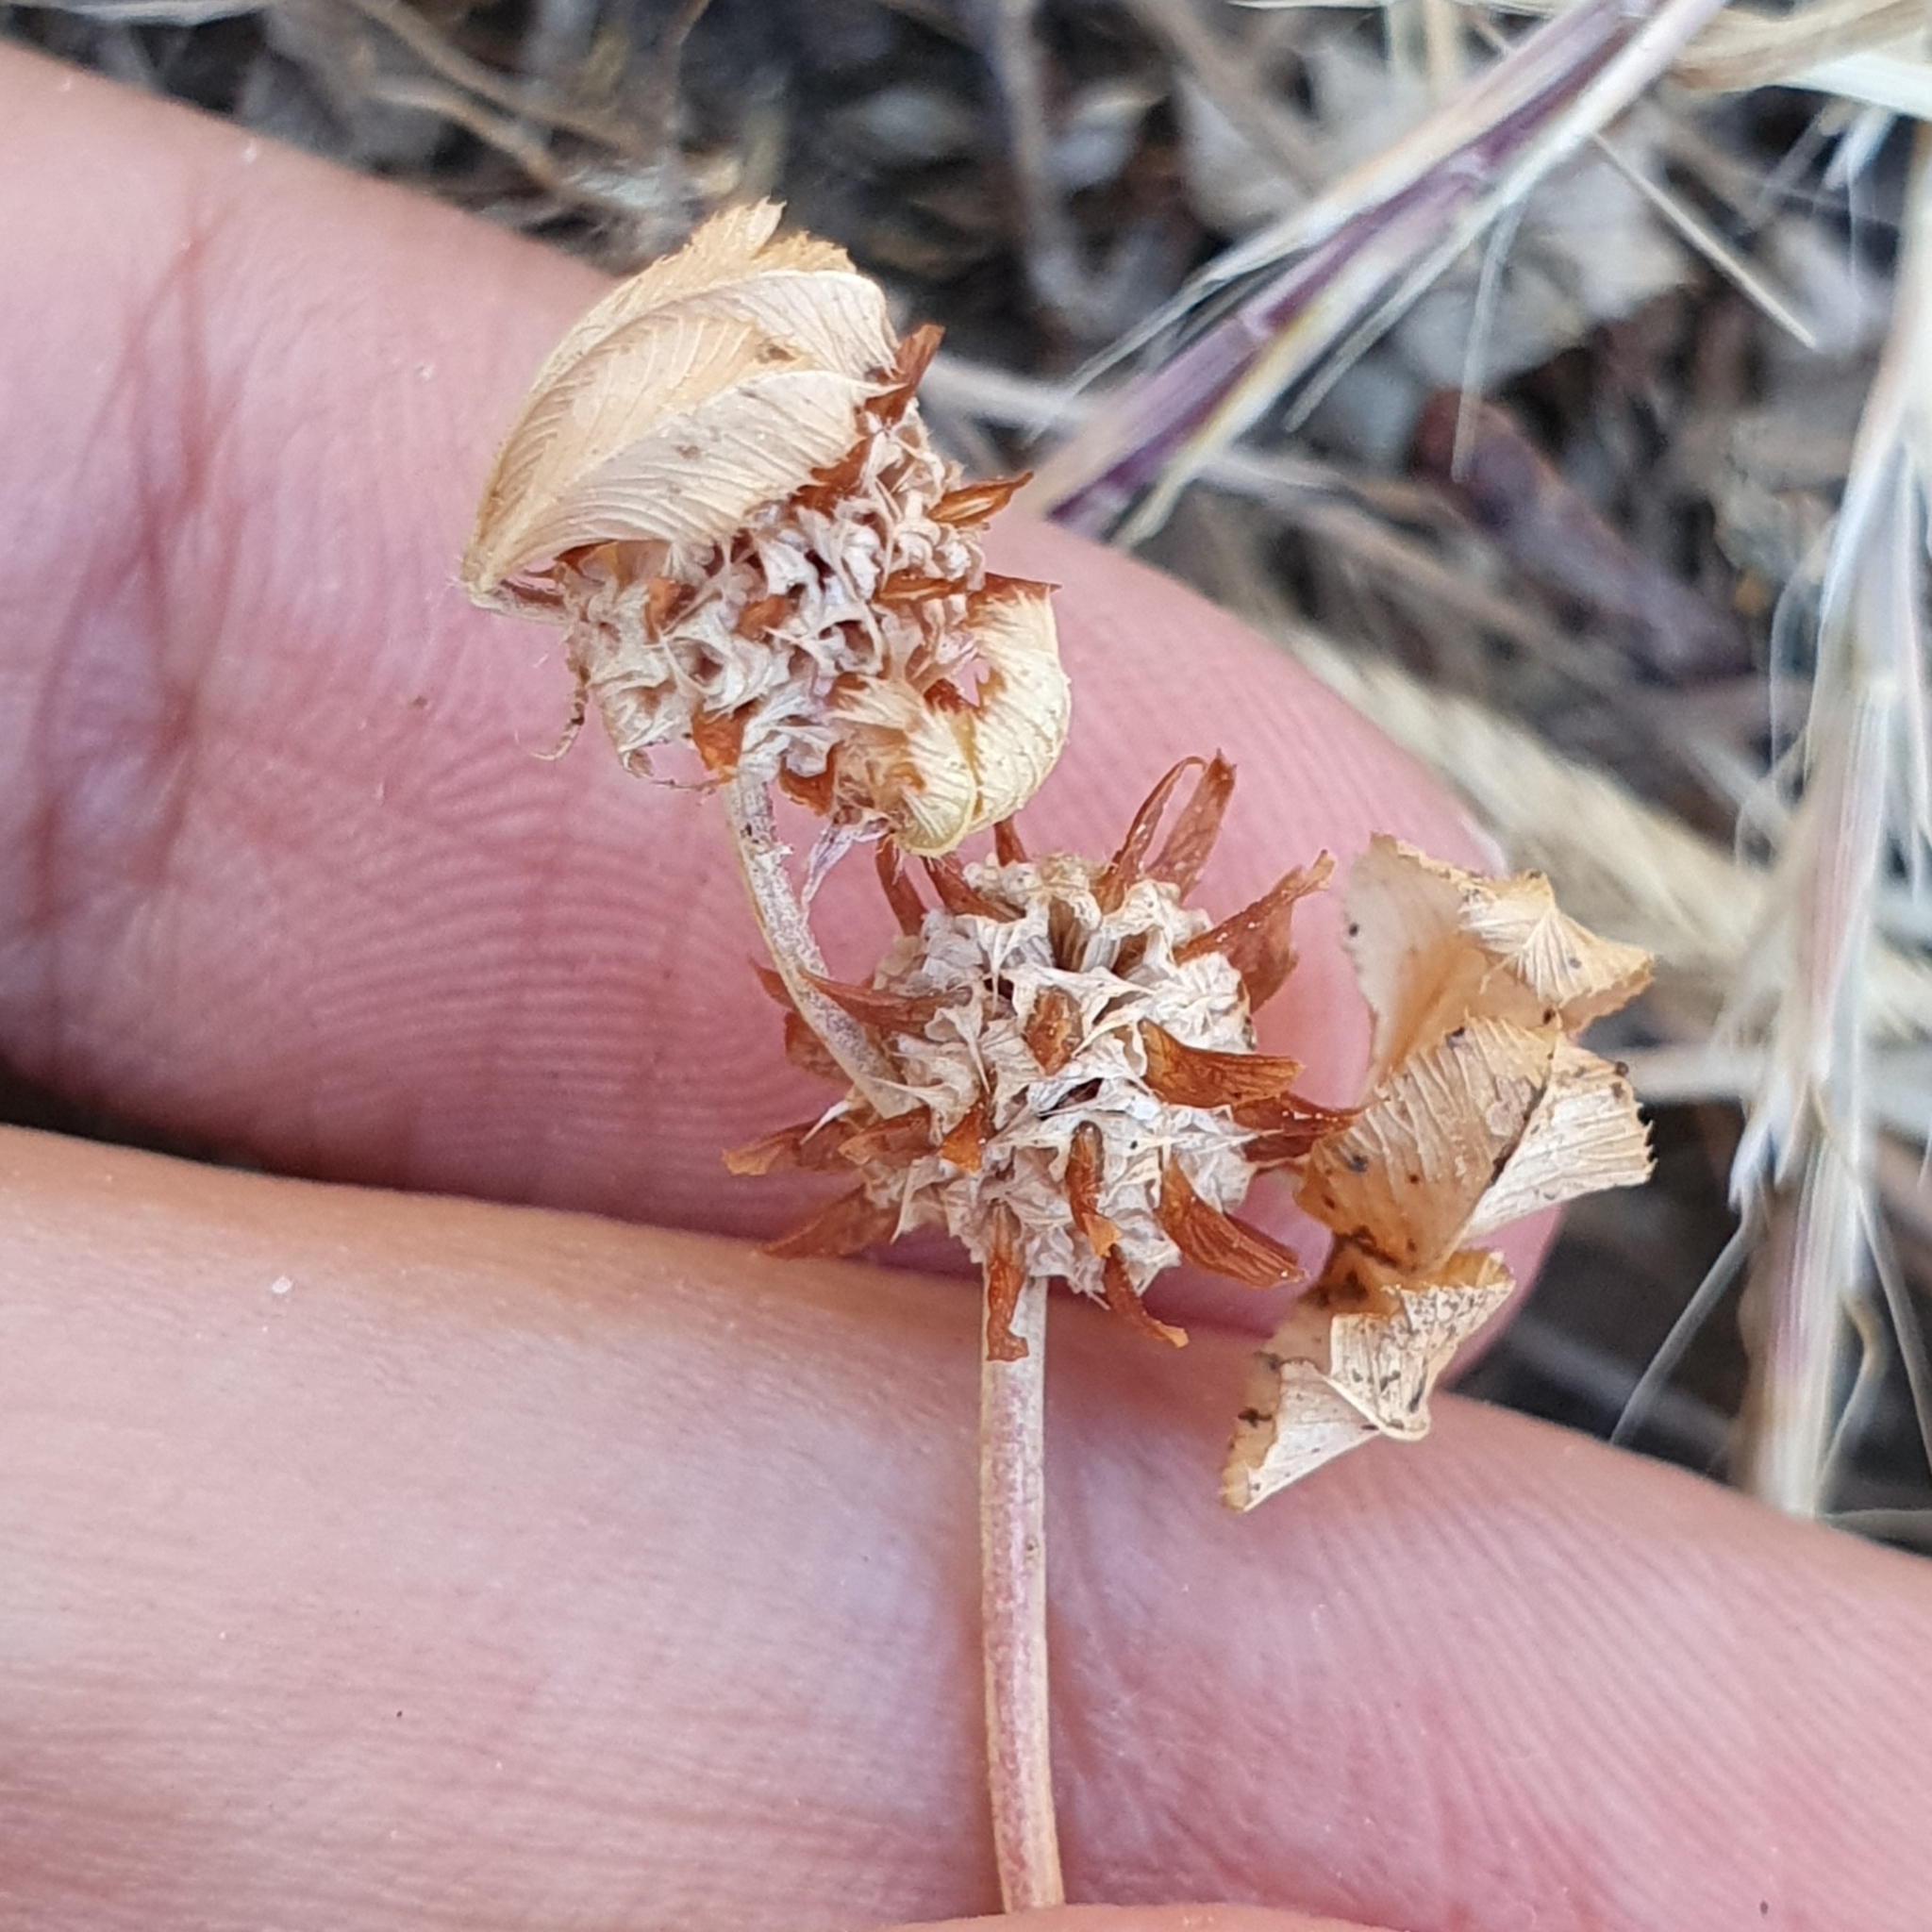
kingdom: Plantae
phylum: Tracheophyta
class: Magnoliopsida
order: Fabales
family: Fabaceae
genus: Trifolium
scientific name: Trifolium glomeratum
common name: Clustered clover
